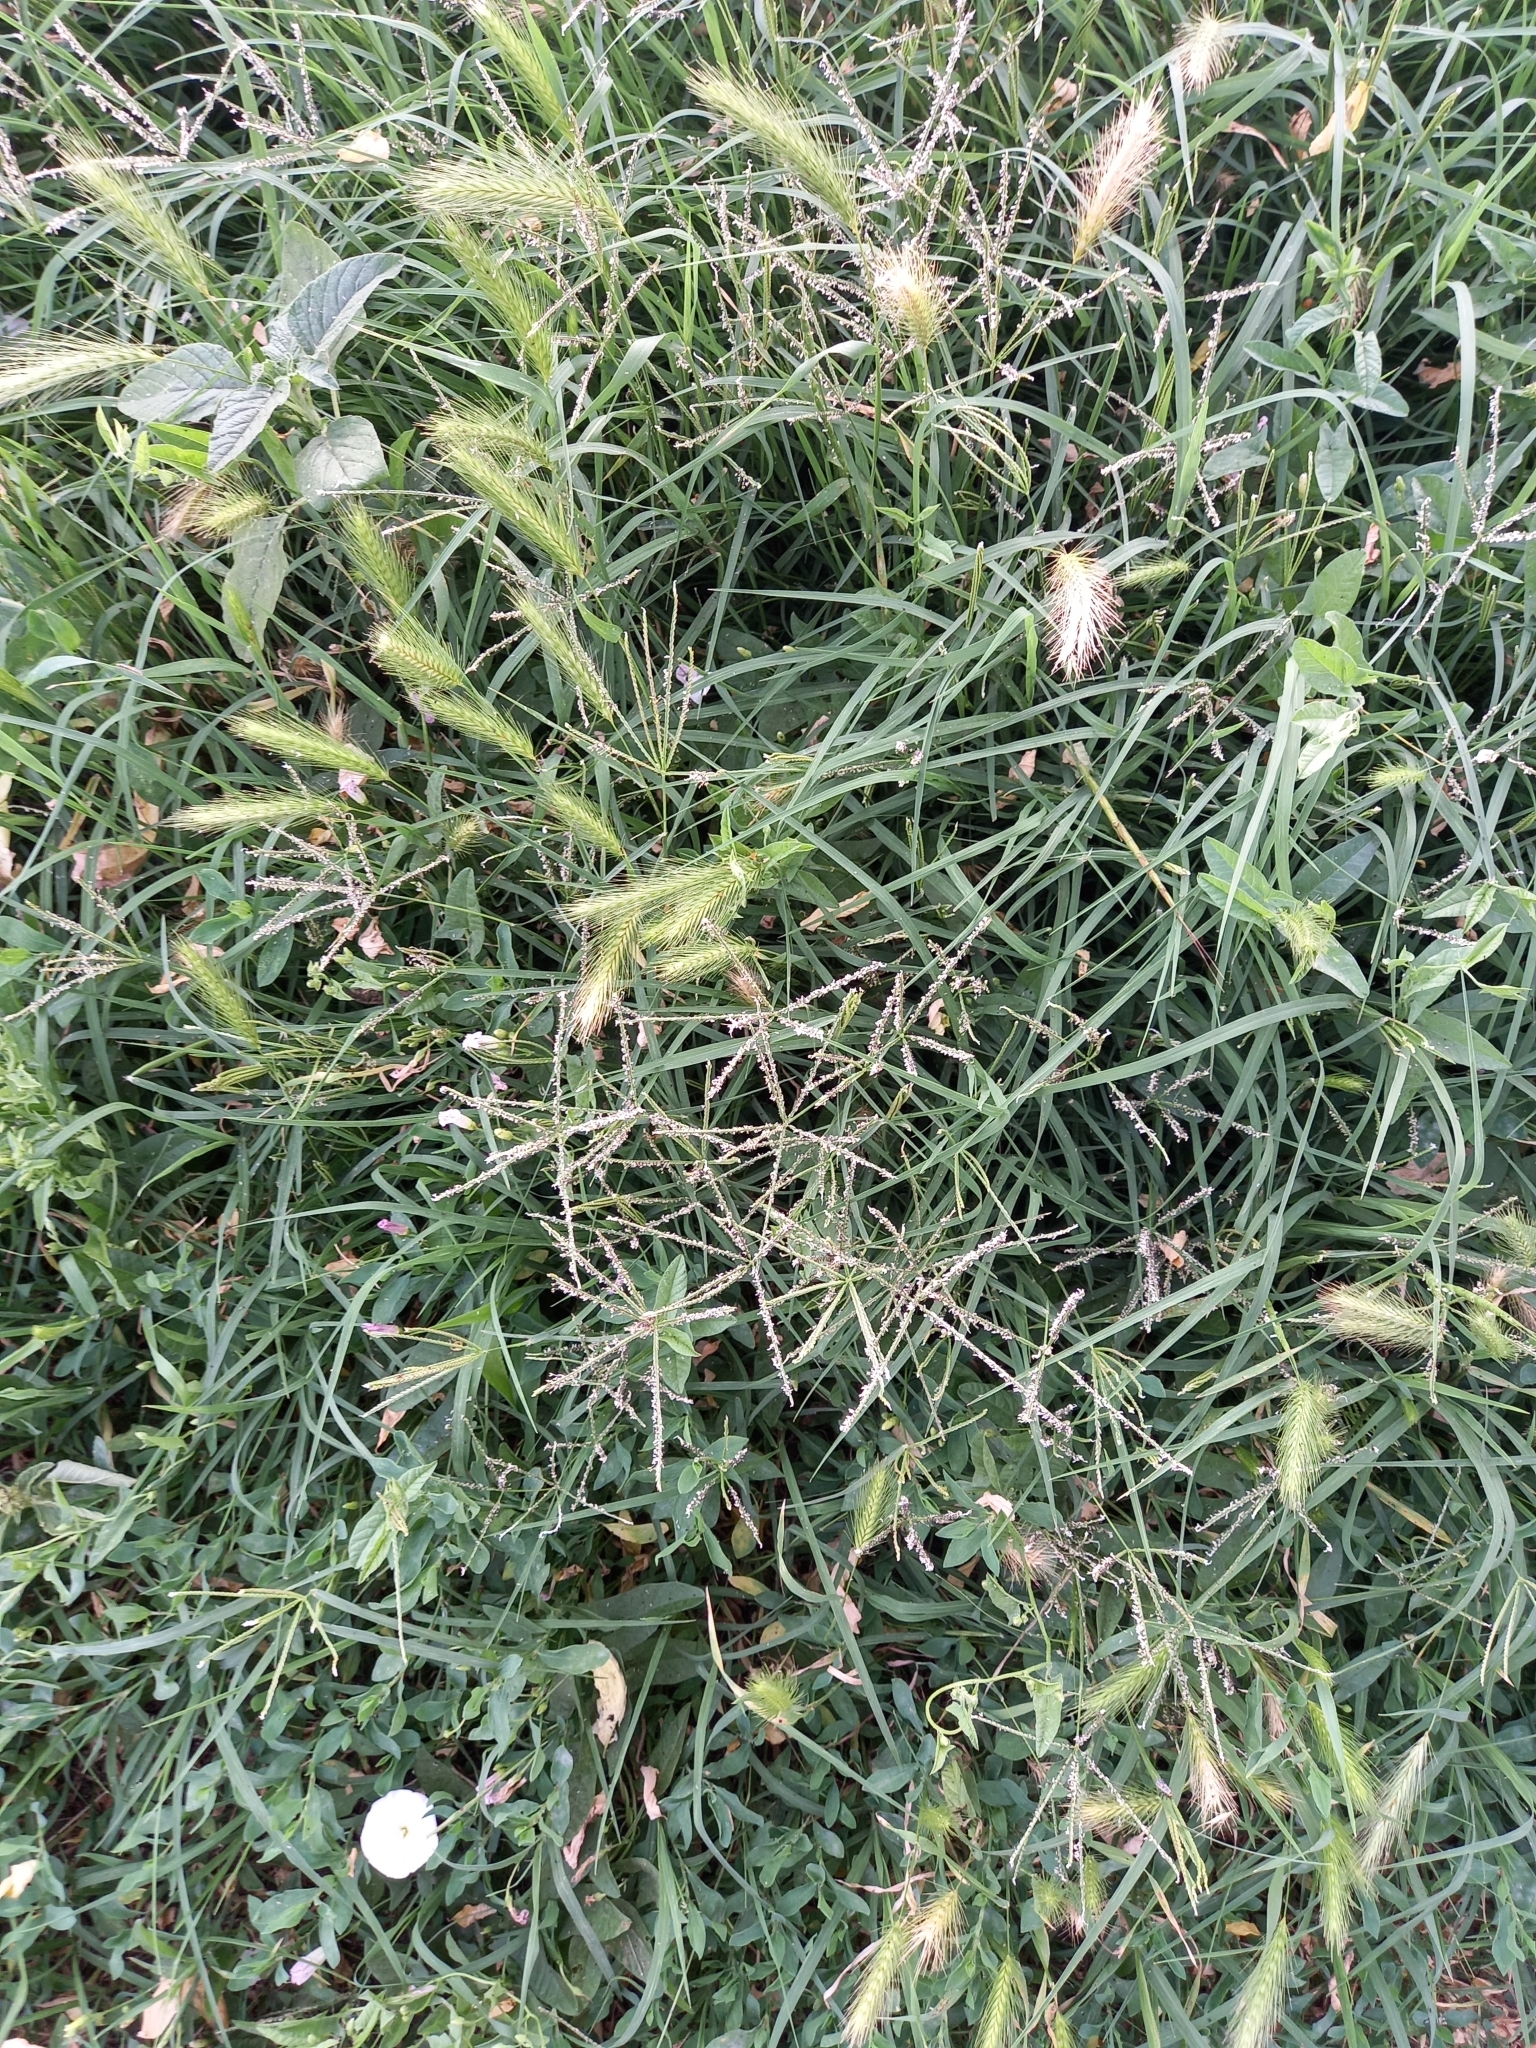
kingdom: Plantae
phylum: Tracheophyta
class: Liliopsida
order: Poales
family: Poaceae
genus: Cynodon
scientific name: Cynodon dactylon
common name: Bermuda grass
